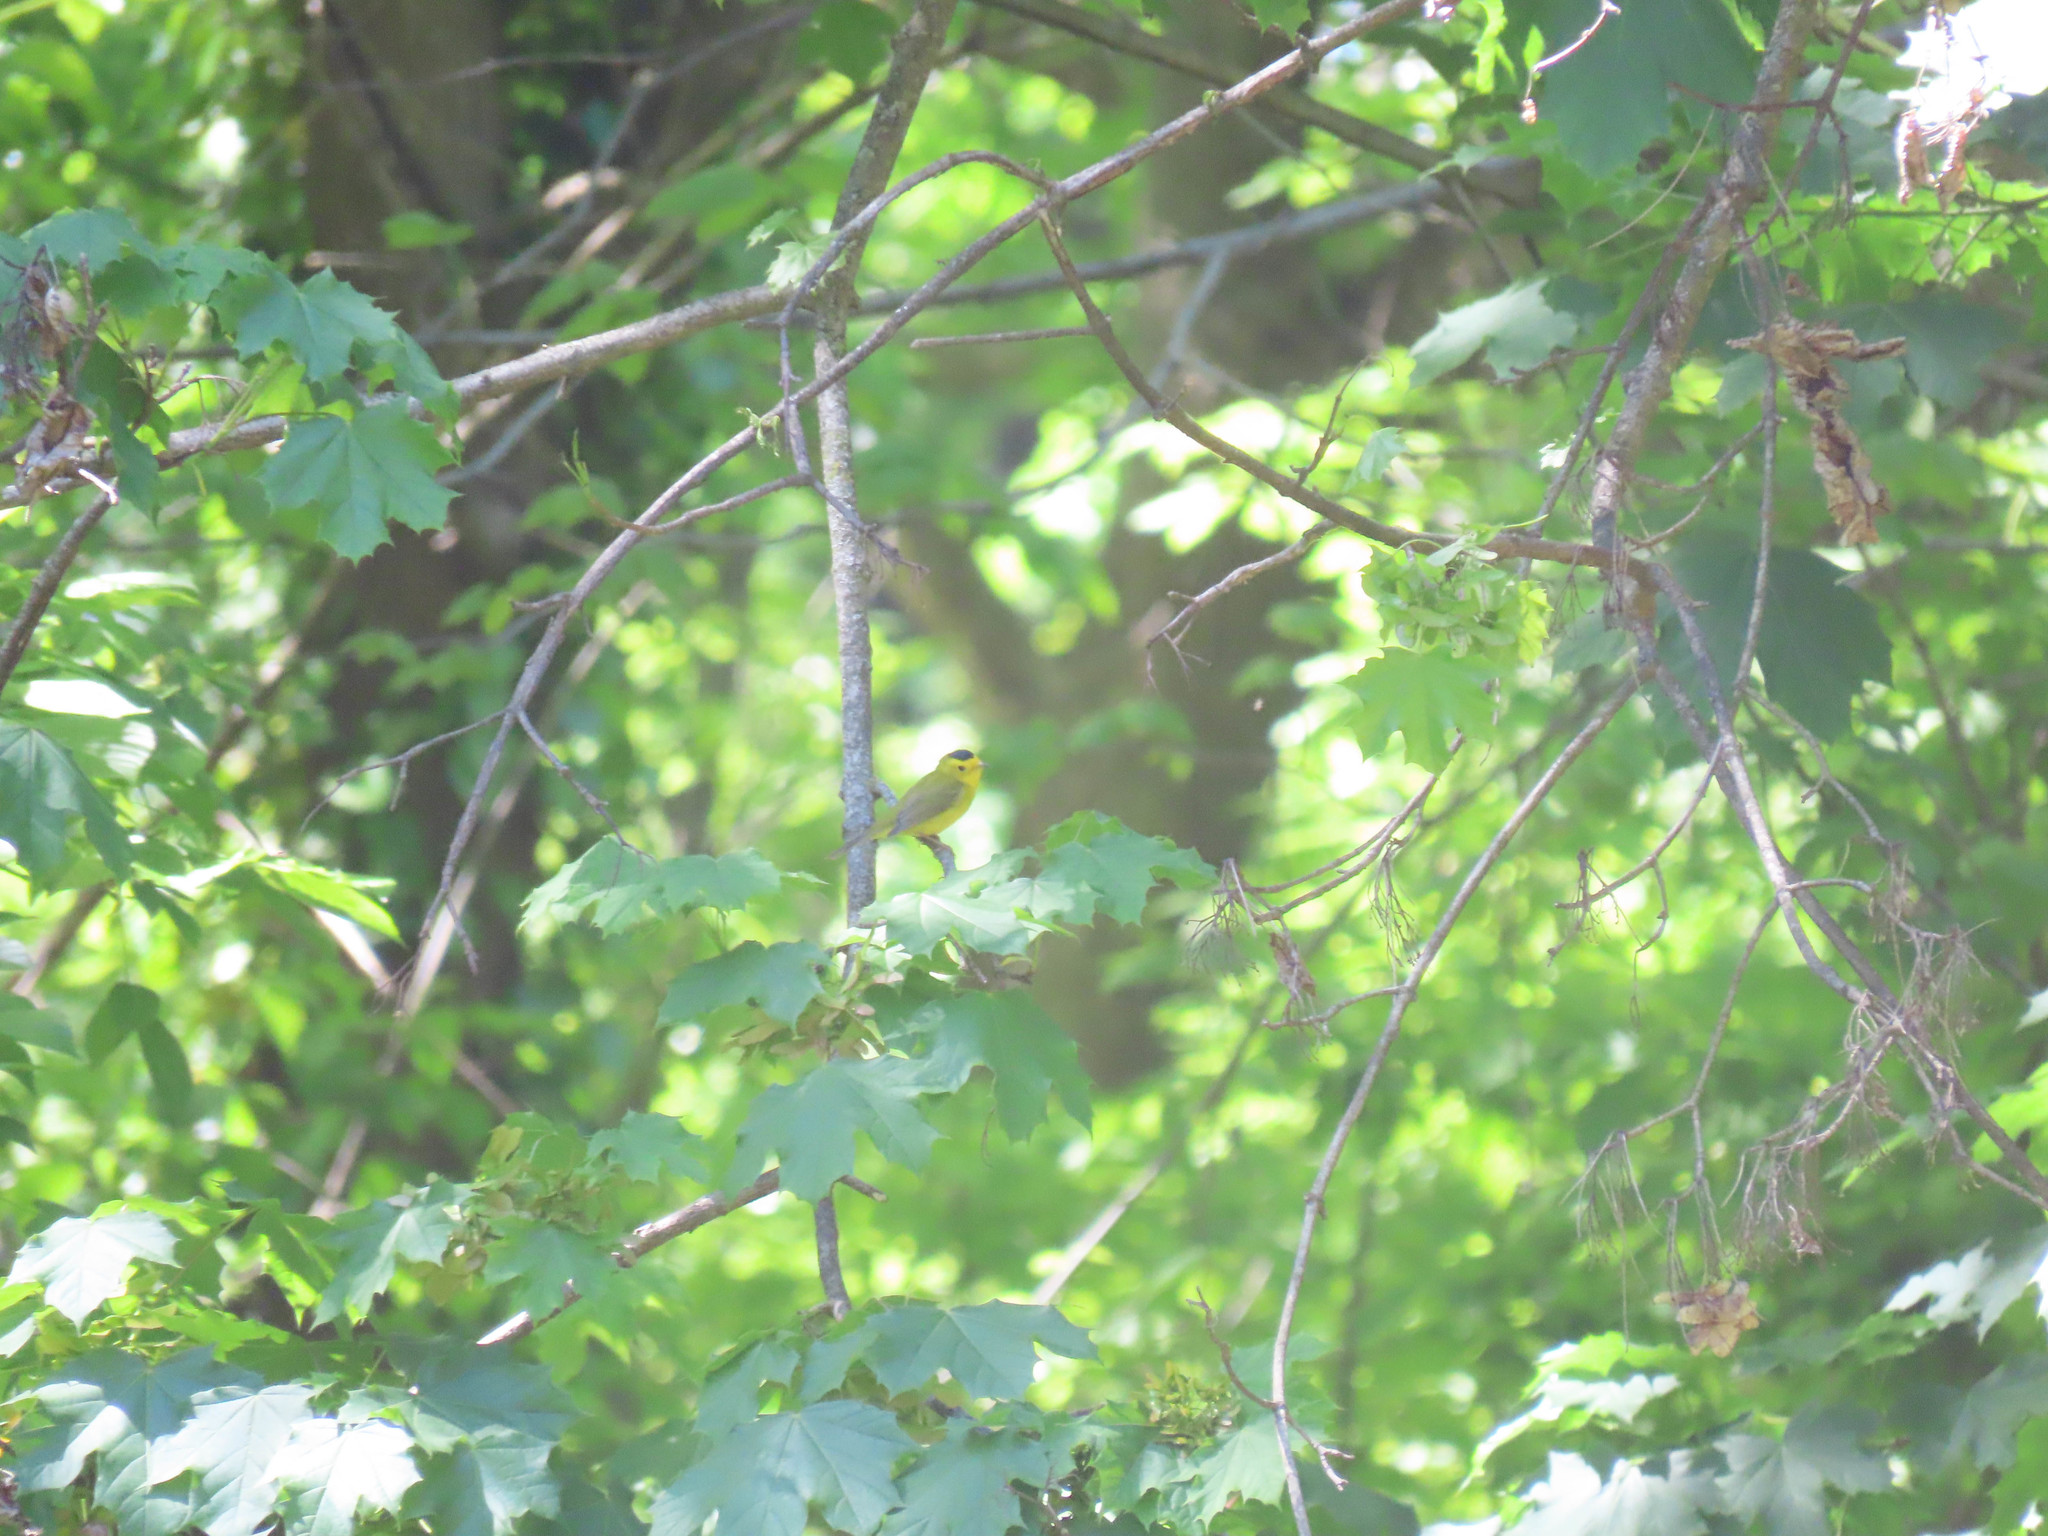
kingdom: Animalia
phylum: Chordata
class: Aves
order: Passeriformes
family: Parulidae
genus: Cardellina
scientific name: Cardellina pusilla
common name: Wilson's warbler
